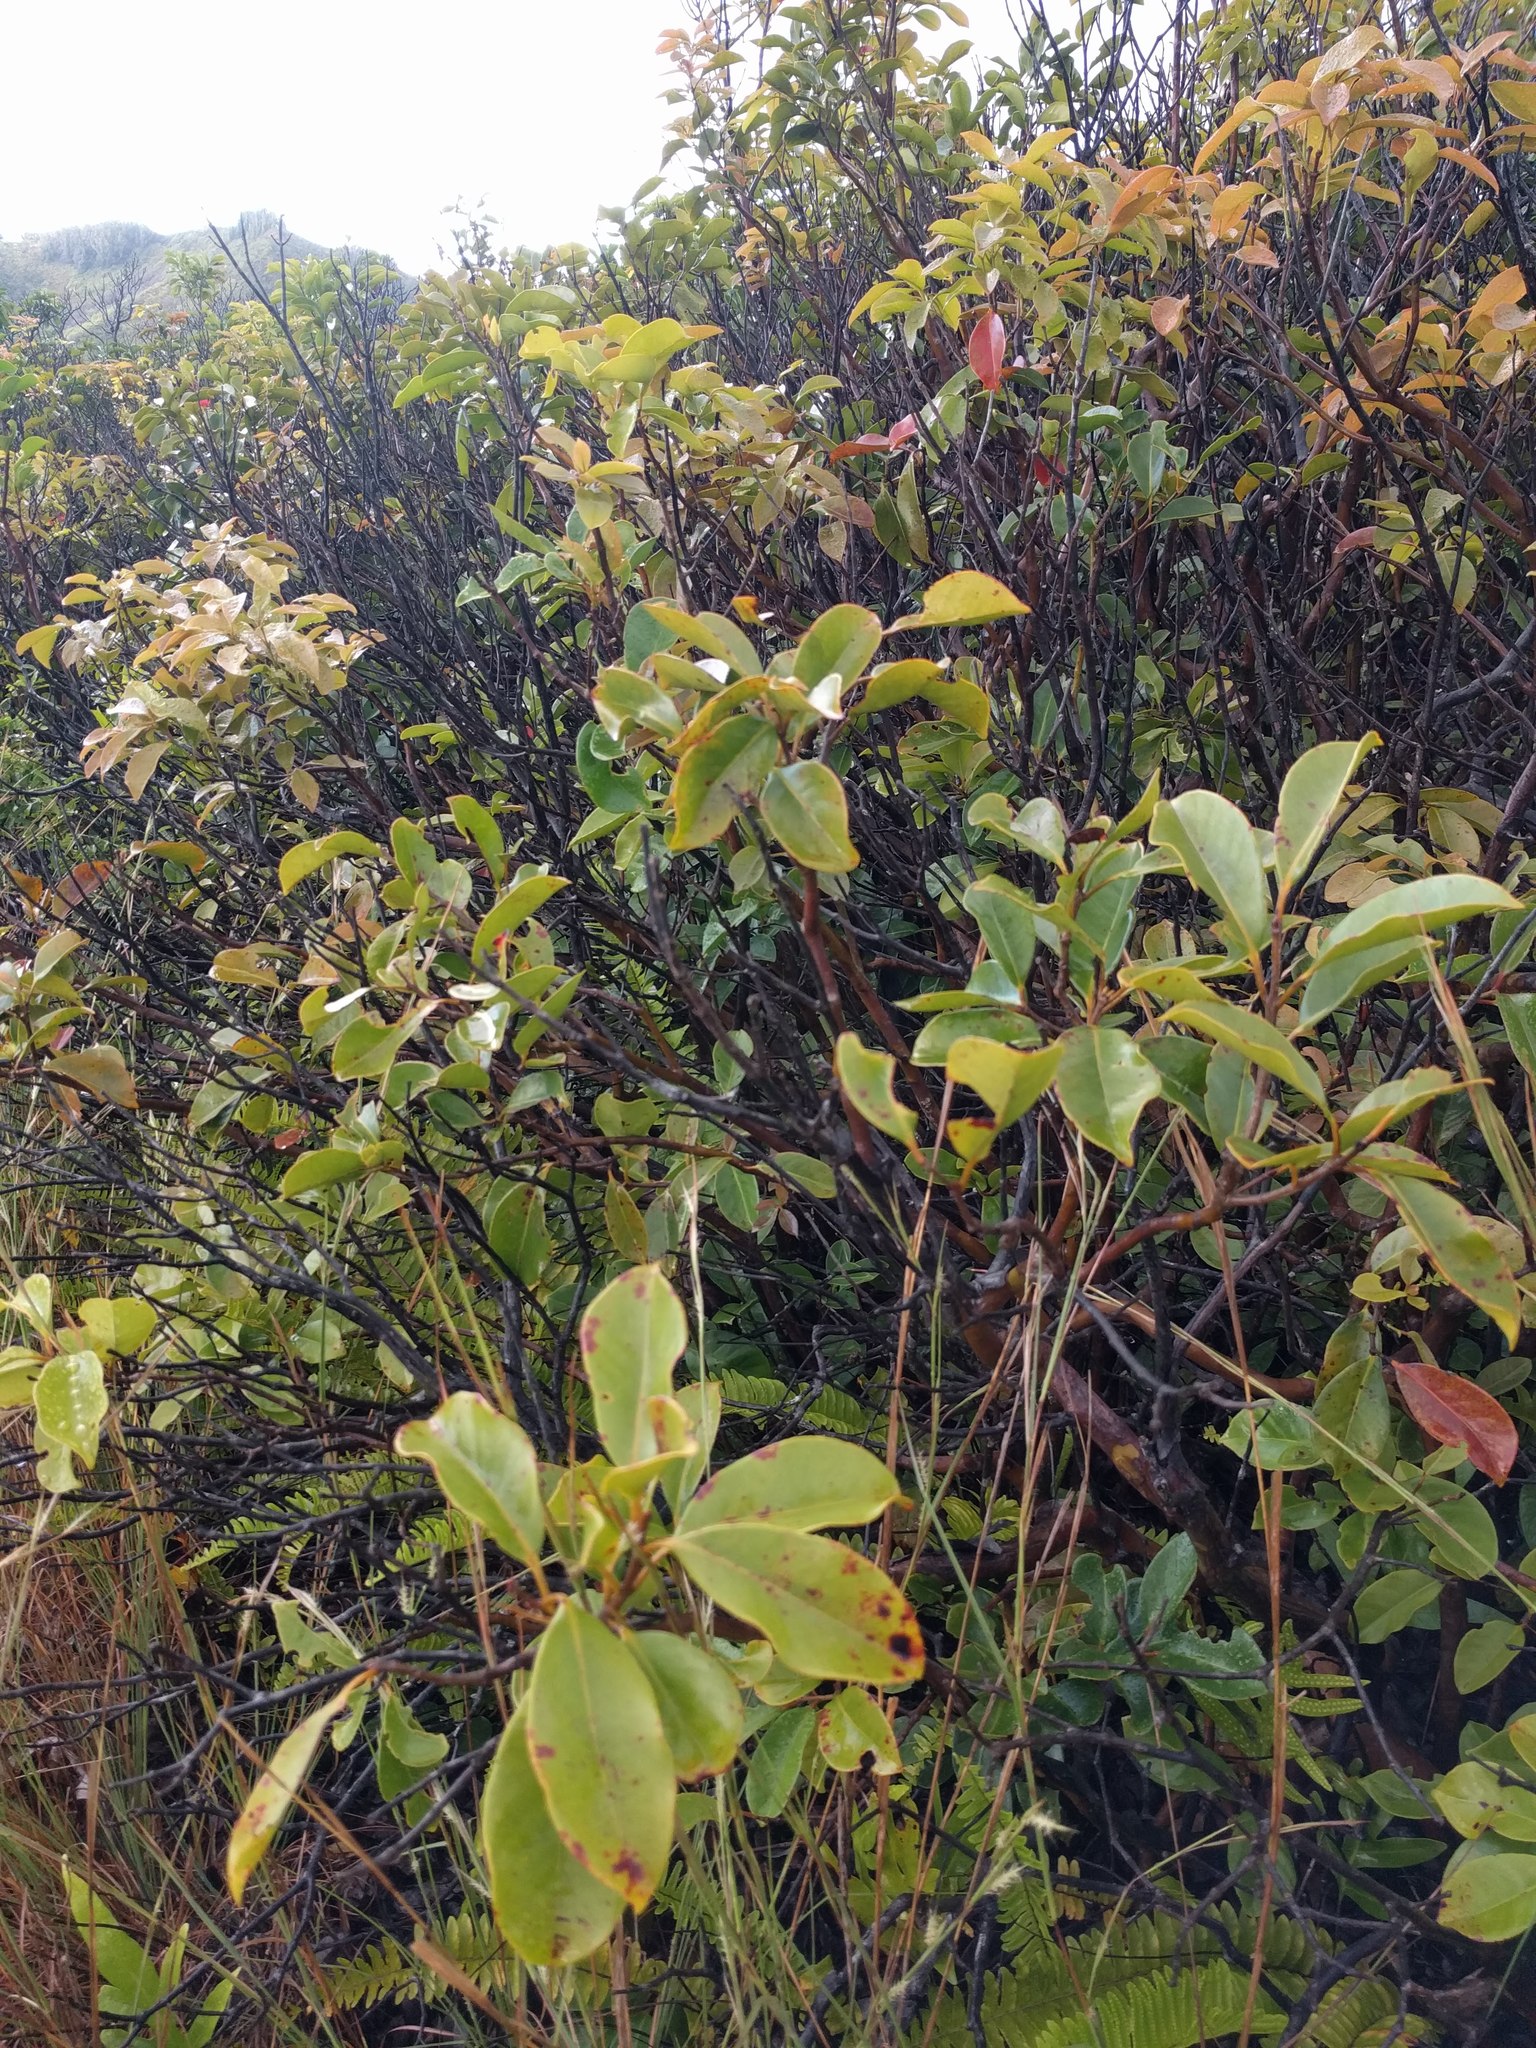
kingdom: Plantae
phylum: Tracheophyta
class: Magnoliopsida
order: Myrtales
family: Myrtaceae
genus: Psidium
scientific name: Psidium cattleianum
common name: Strawberry guava
